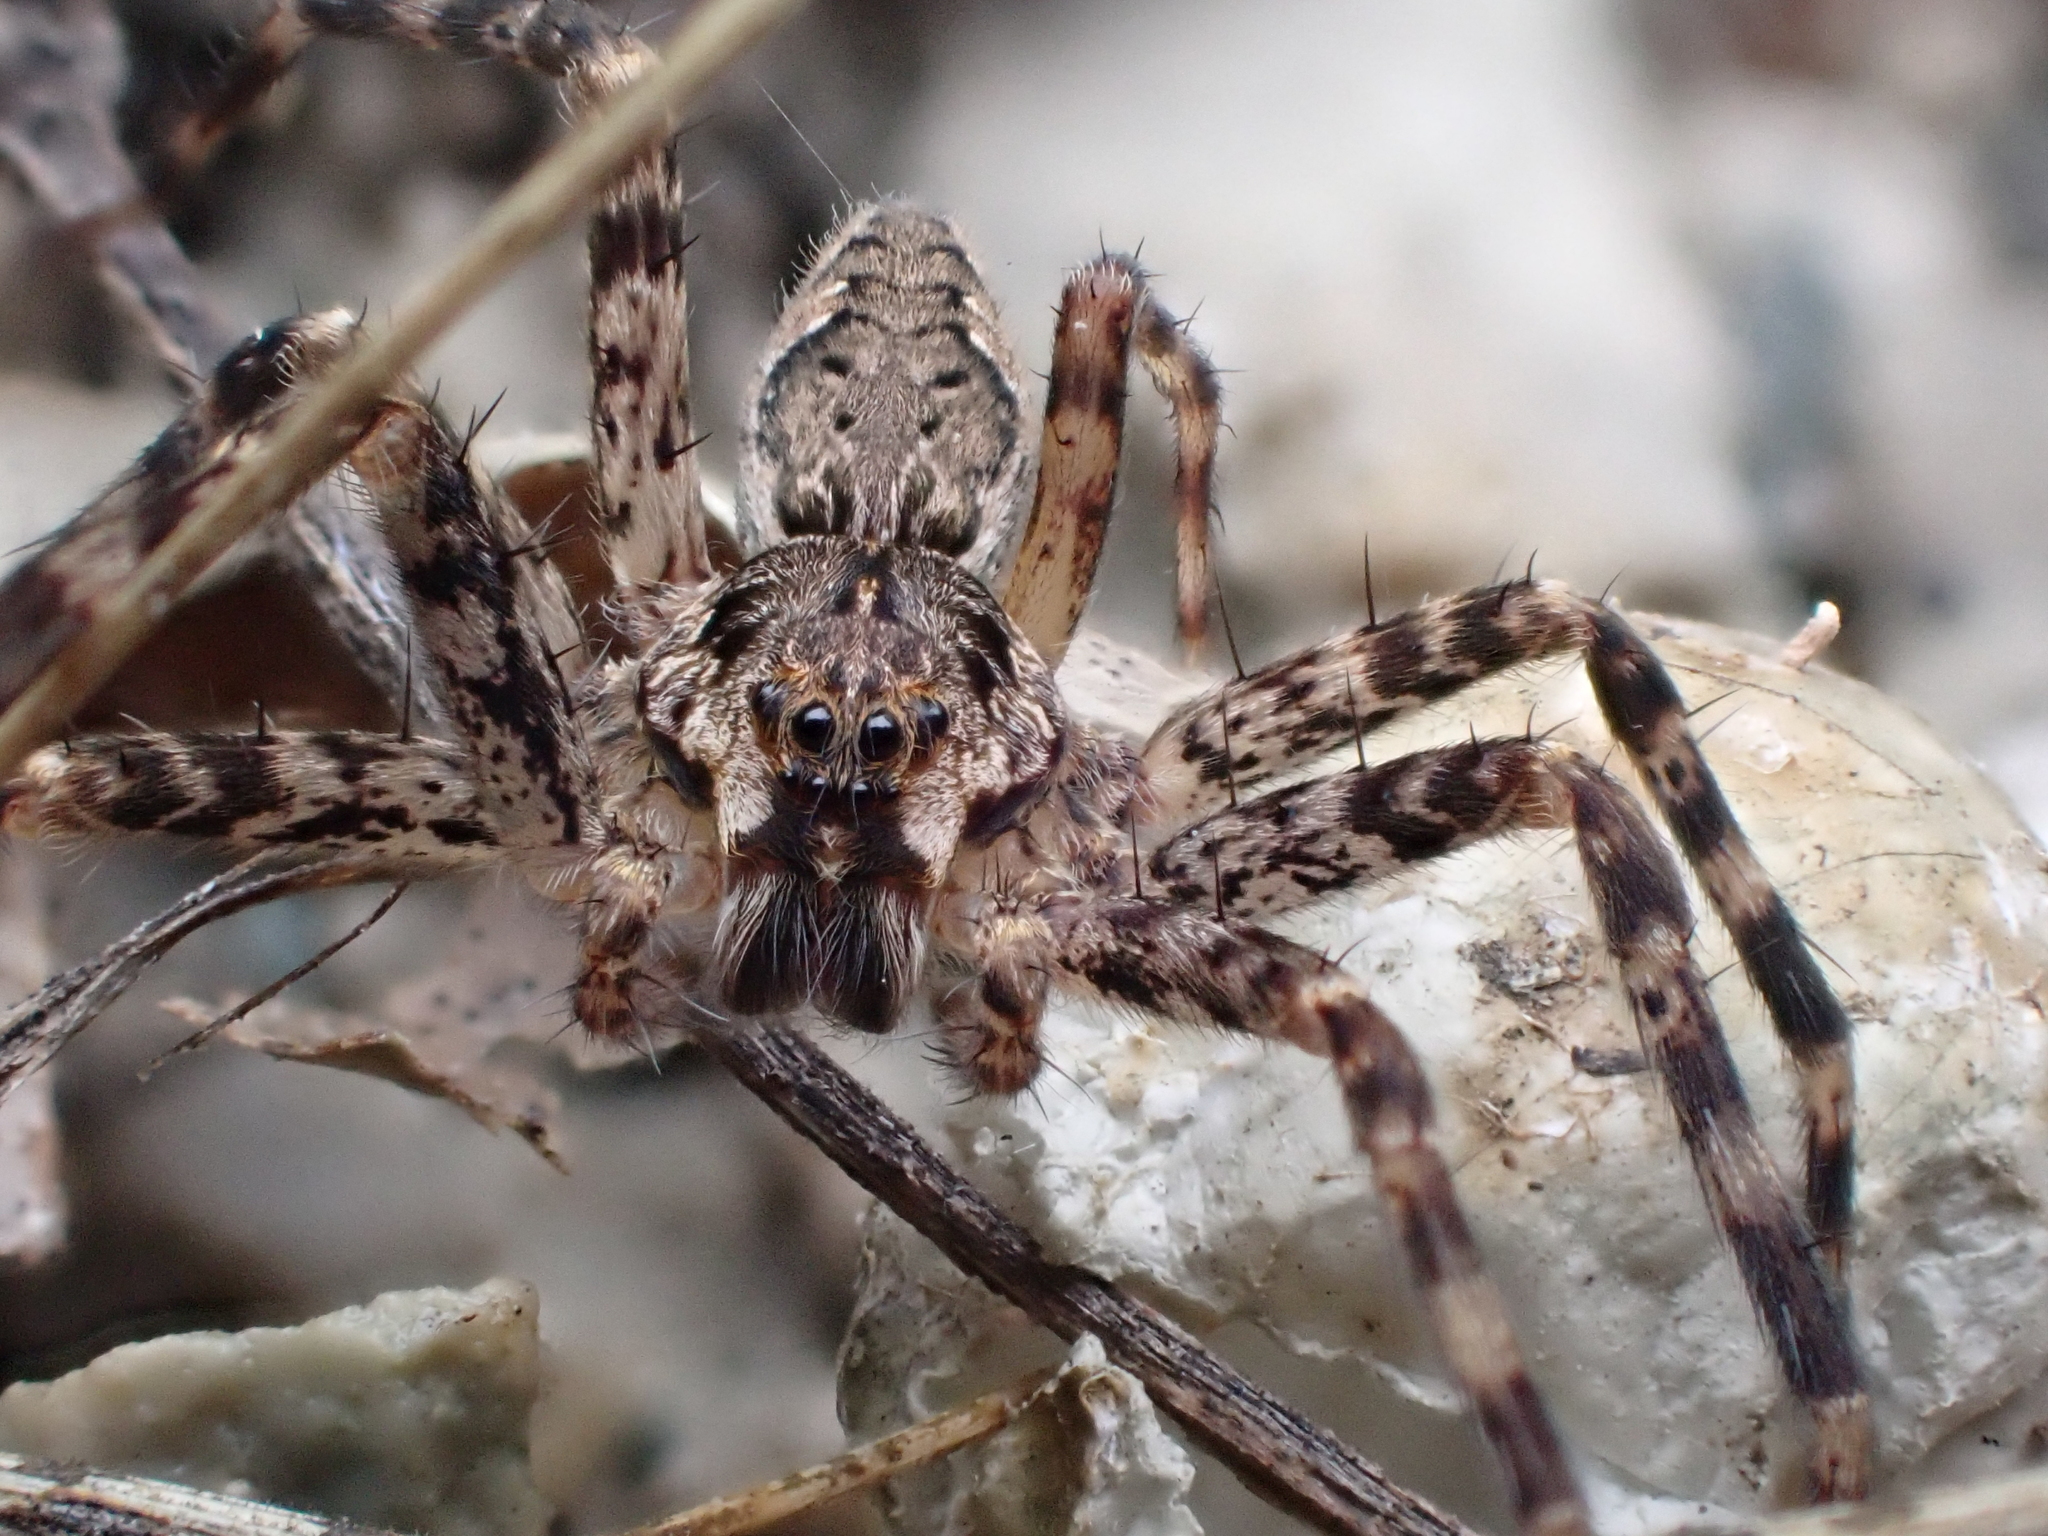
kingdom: Animalia
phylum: Arthropoda
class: Arachnida
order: Araneae
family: Pisauridae
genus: Dolomedes
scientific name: Dolomedes tenebrosus
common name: Dark fishing spider
